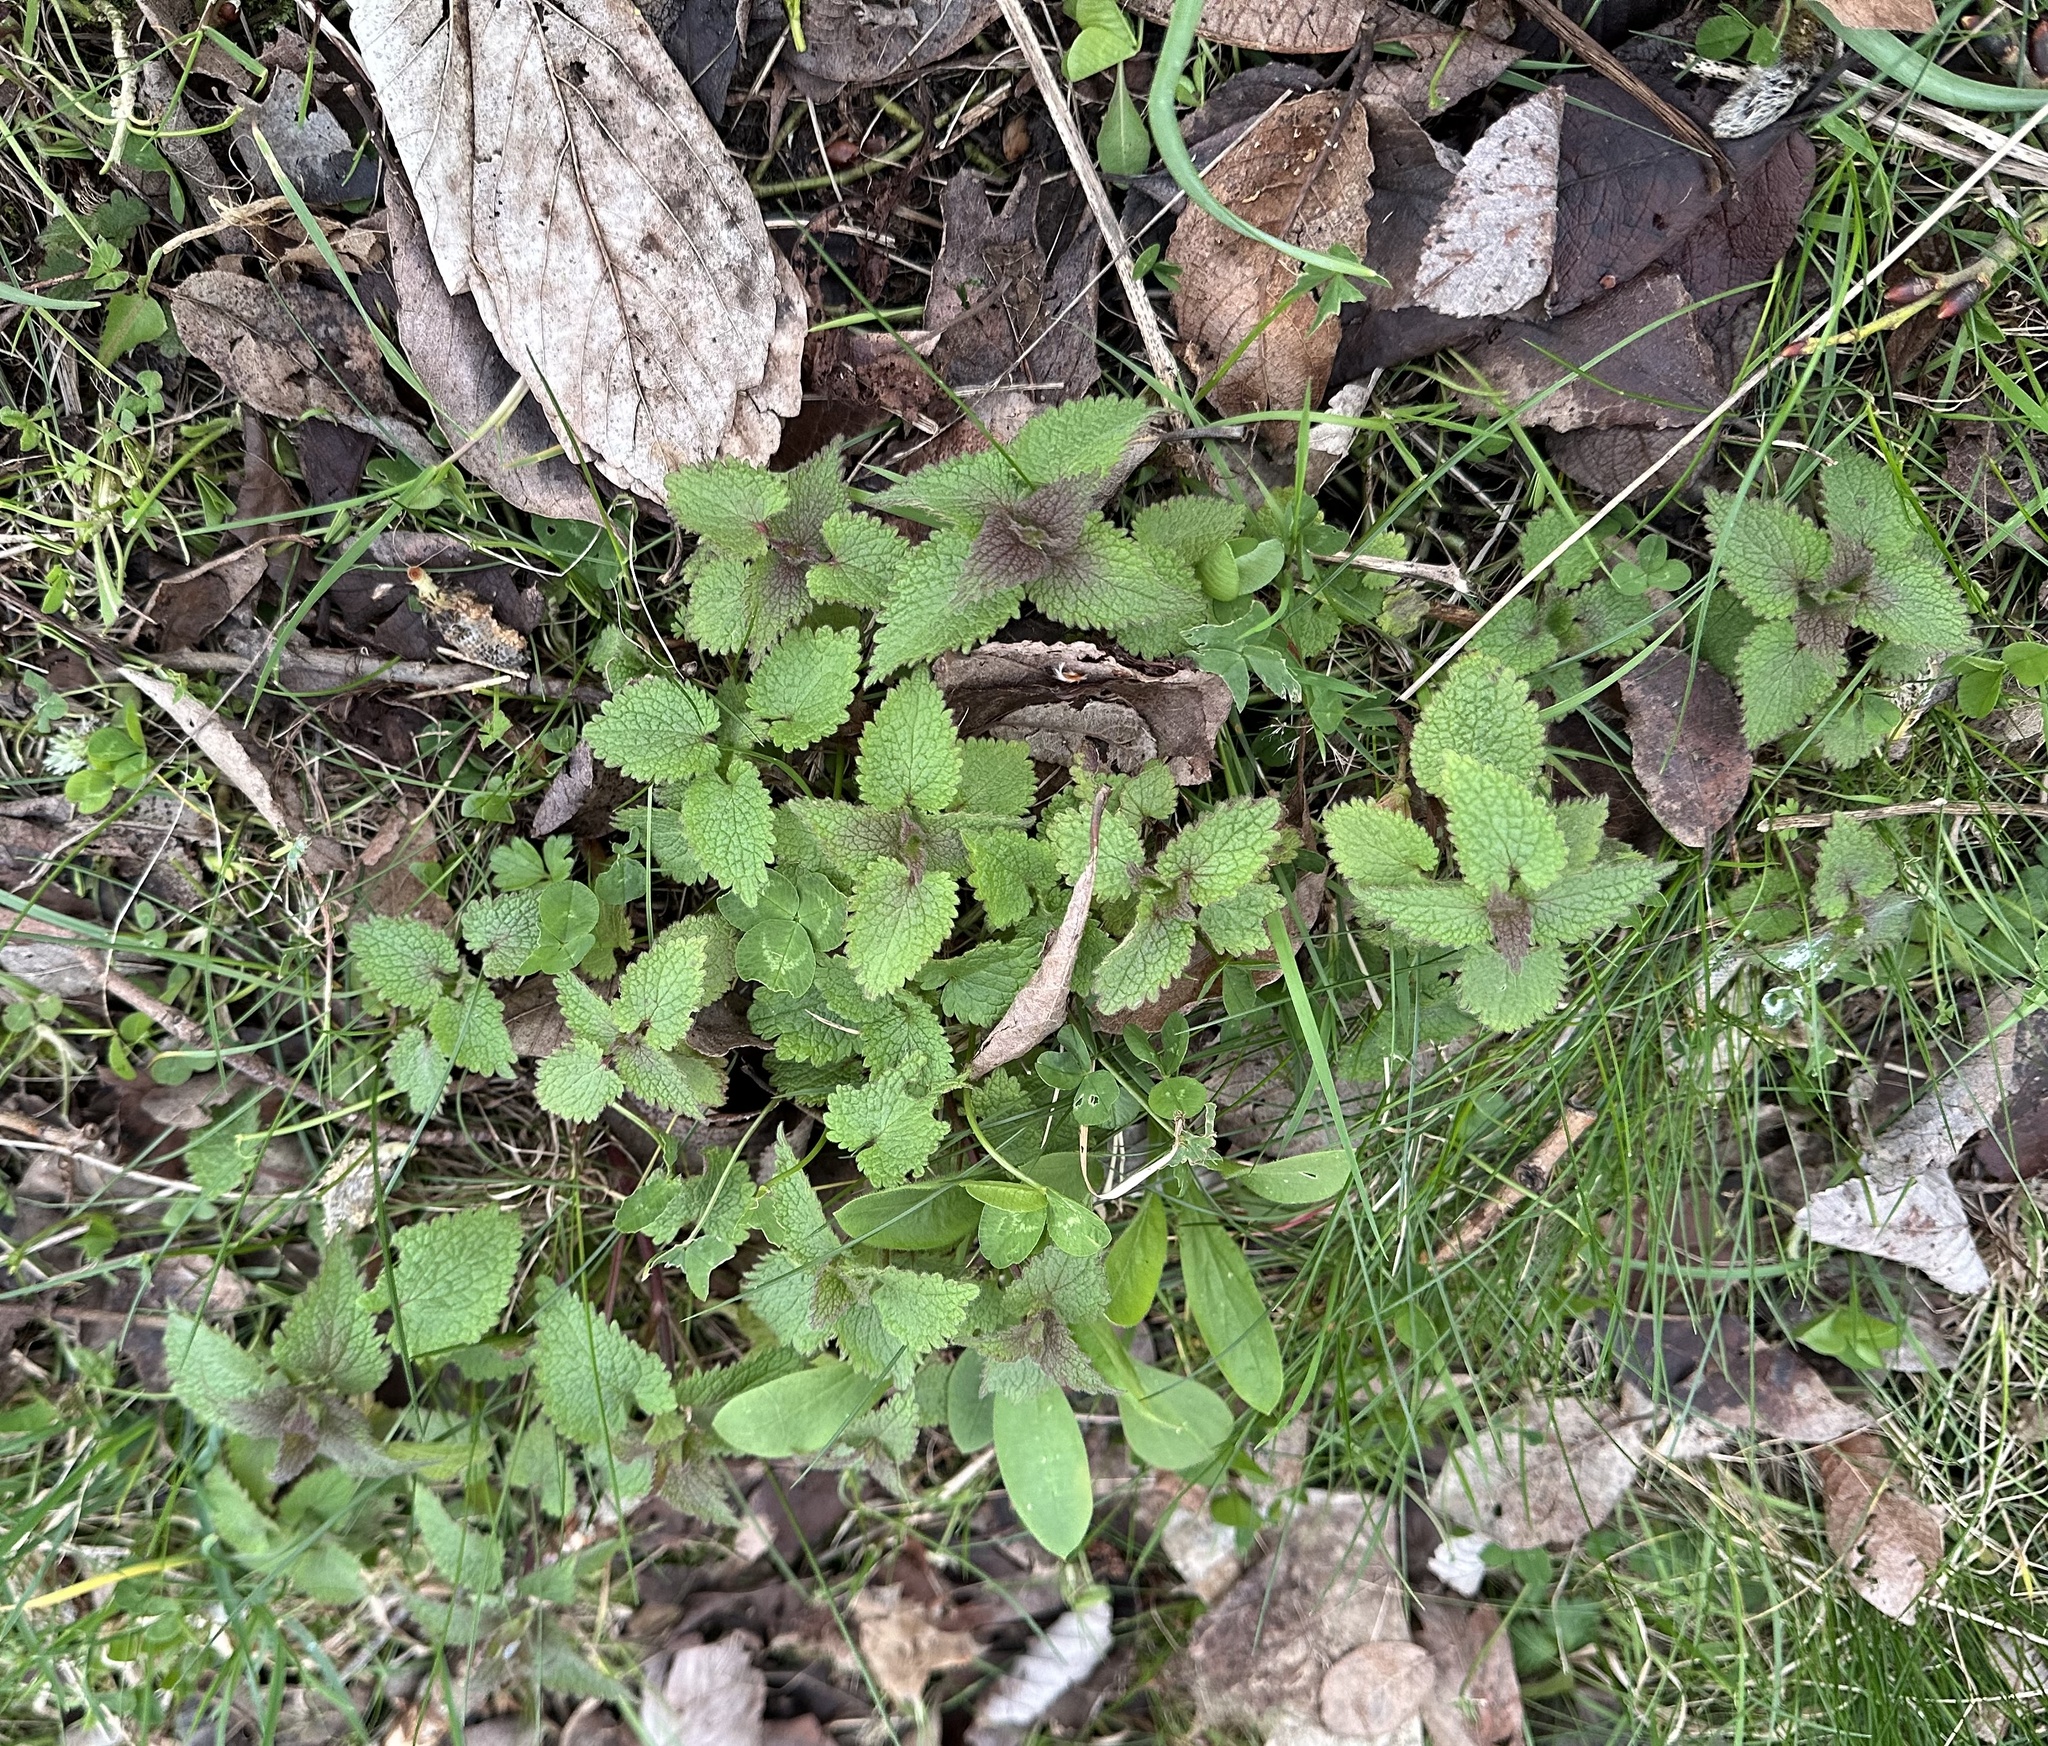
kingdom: Plantae
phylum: Tracheophyta
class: Magnoliopsida
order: Lamiales
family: Lamiaceae
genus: Lamium
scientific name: Lamium album
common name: White dead-nettle
